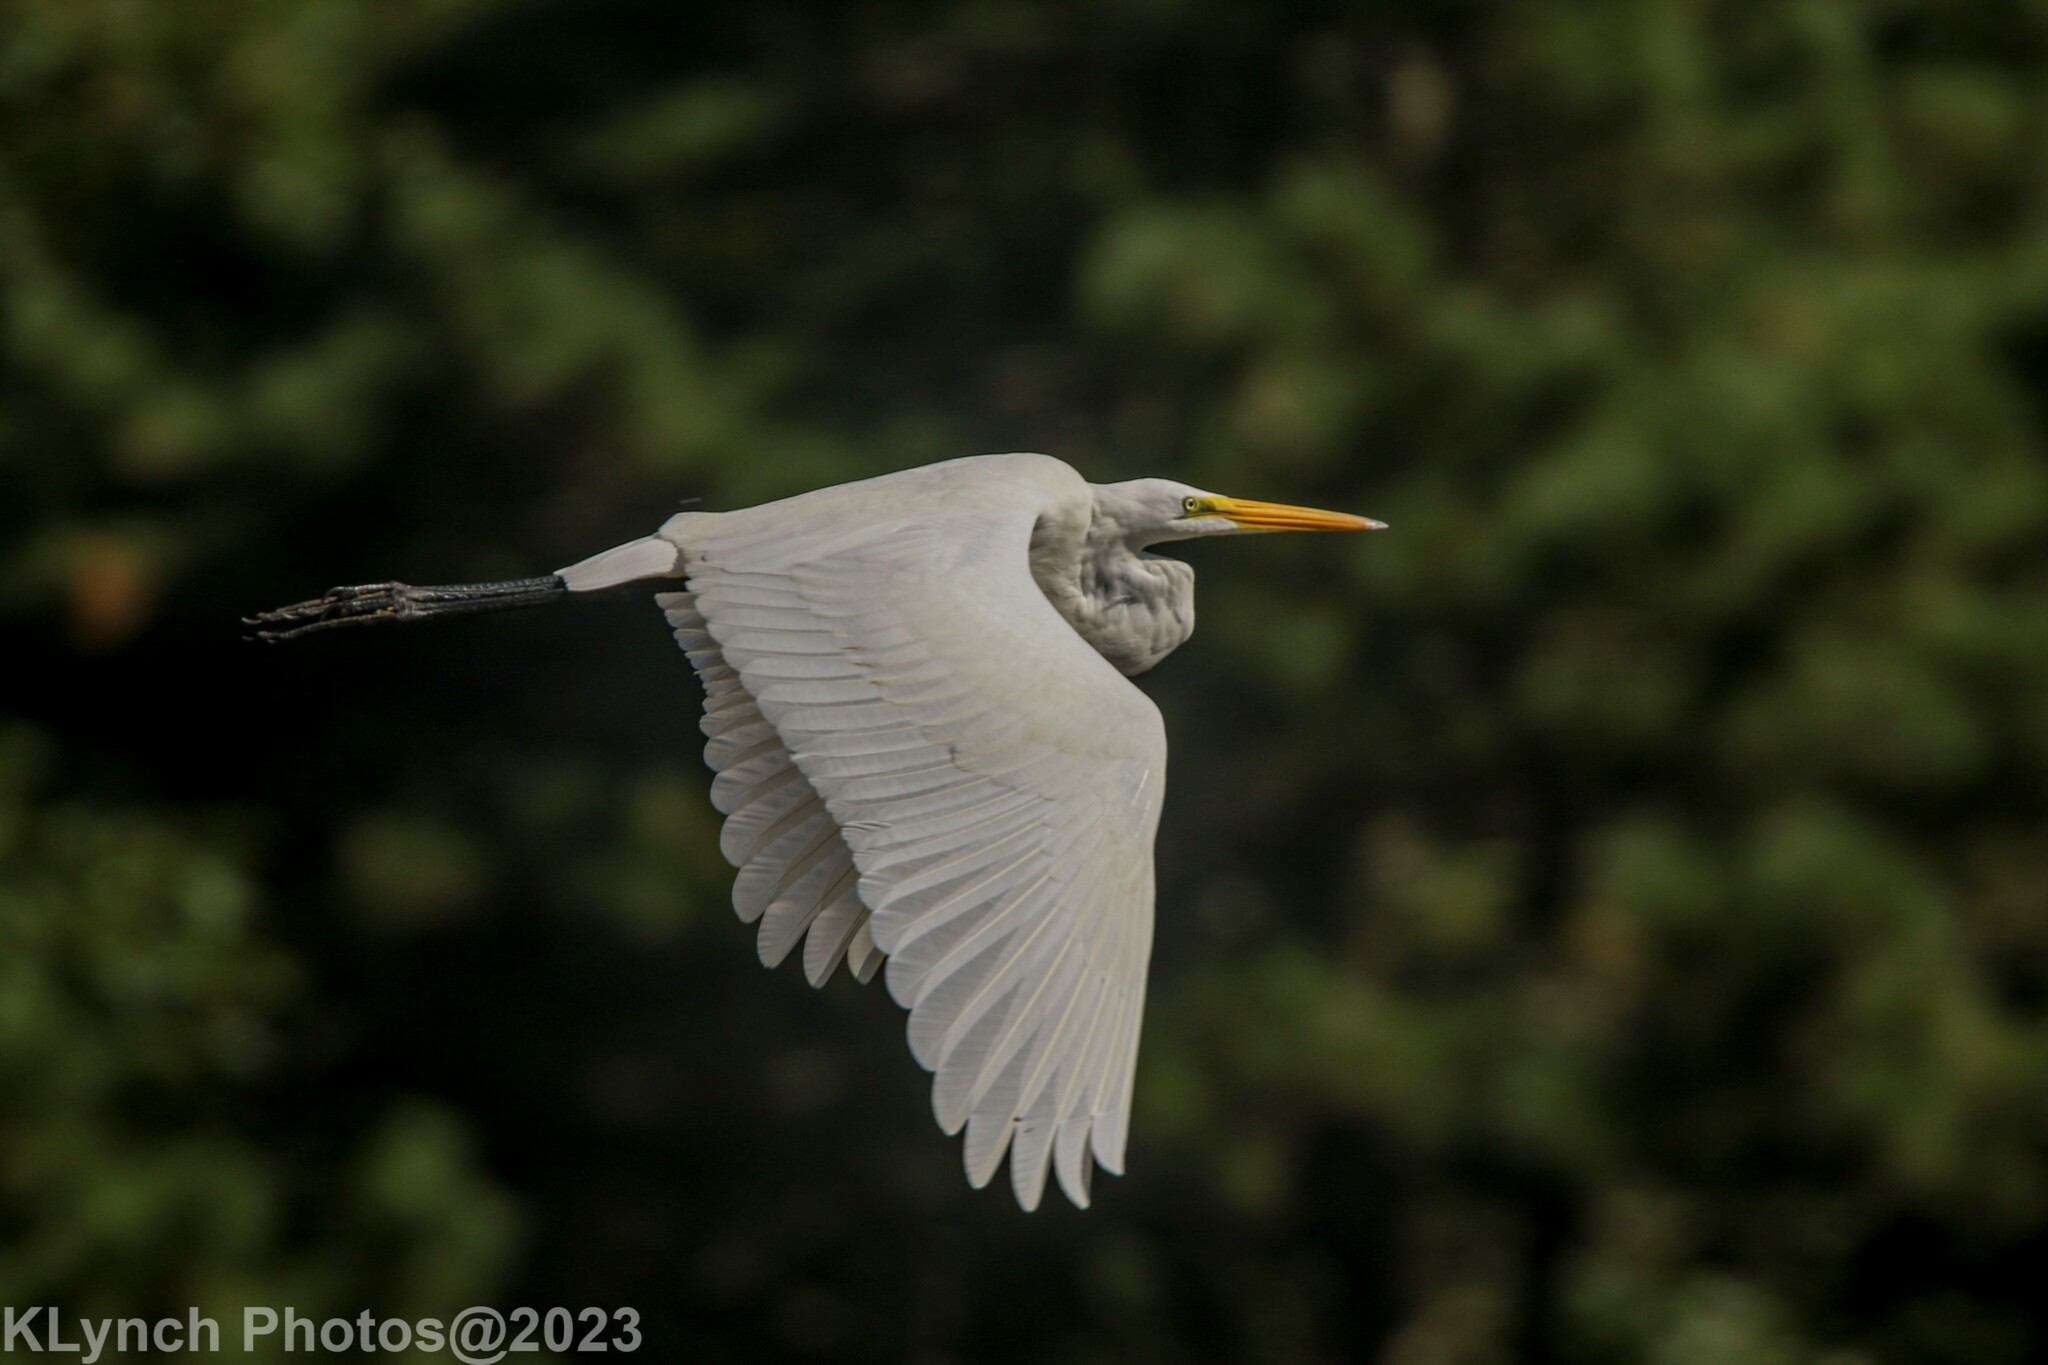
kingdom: Animalia
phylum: Chordata
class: Aves
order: Pelecaniformes
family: Ardeidae
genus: Ardea
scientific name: Ardea alba
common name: Great egret
